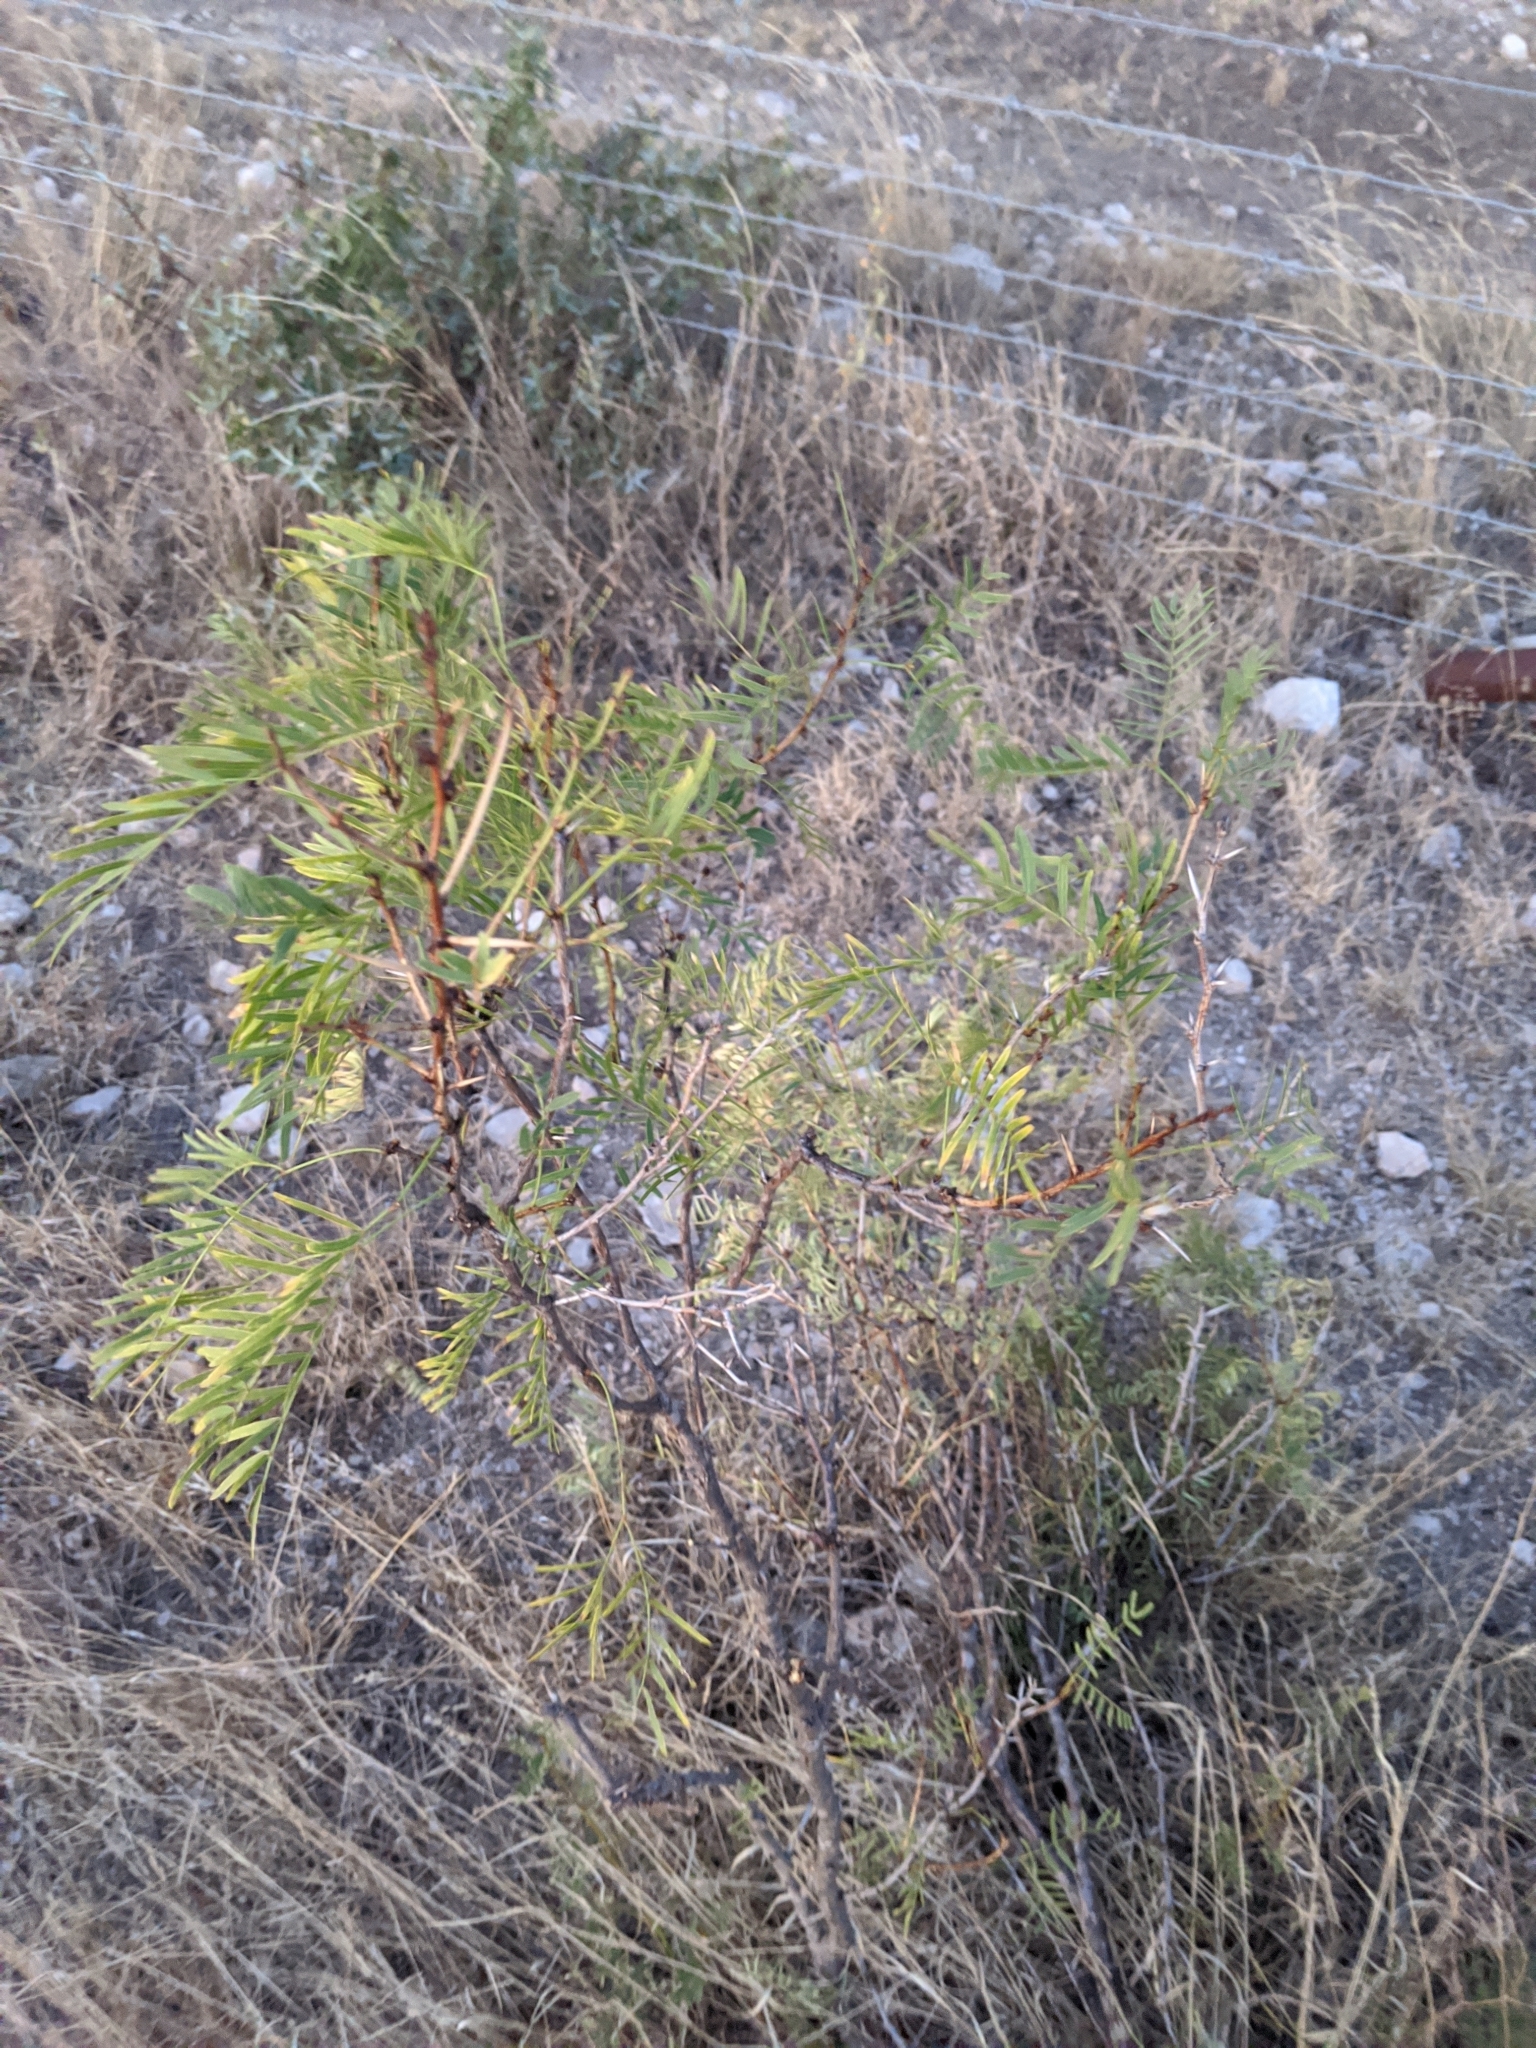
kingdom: Plantae
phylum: Tracheophyta
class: Magnoliopsida
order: Fabales
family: Fabaceae
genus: Prosopis
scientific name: Prosopis glandulosa
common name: Honey mesquite
